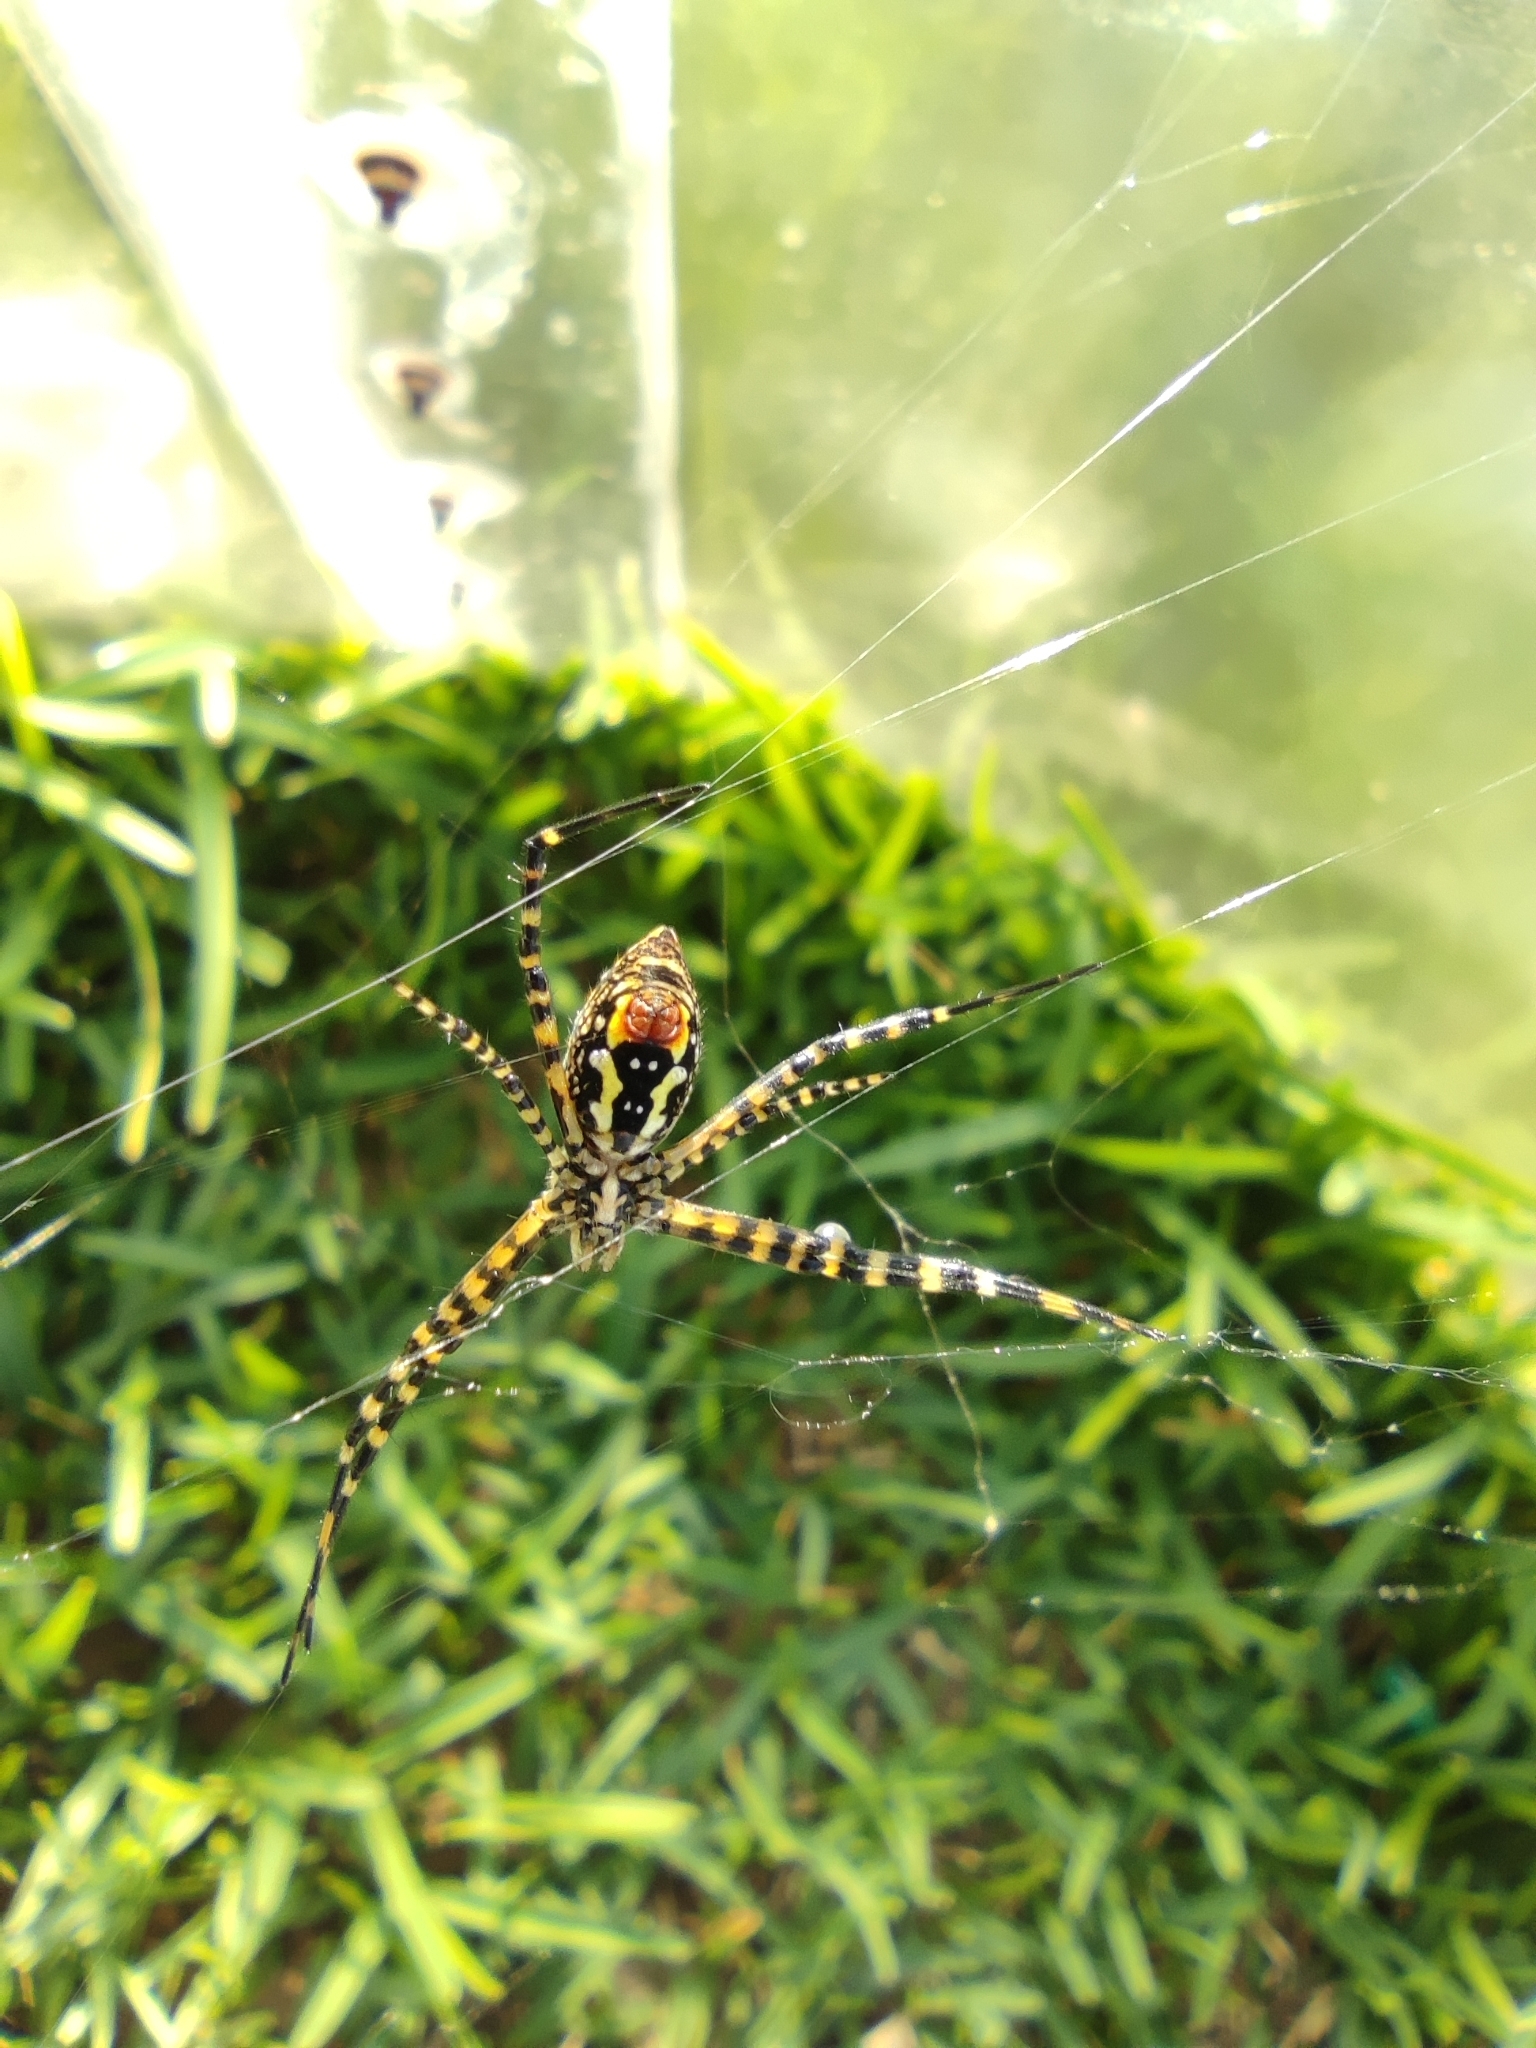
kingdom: Animalia
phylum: Arthropoda
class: Arachnida
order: Araneae
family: Araneidae
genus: Argiope
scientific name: Argiope trifasciata
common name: Banded garden spider
